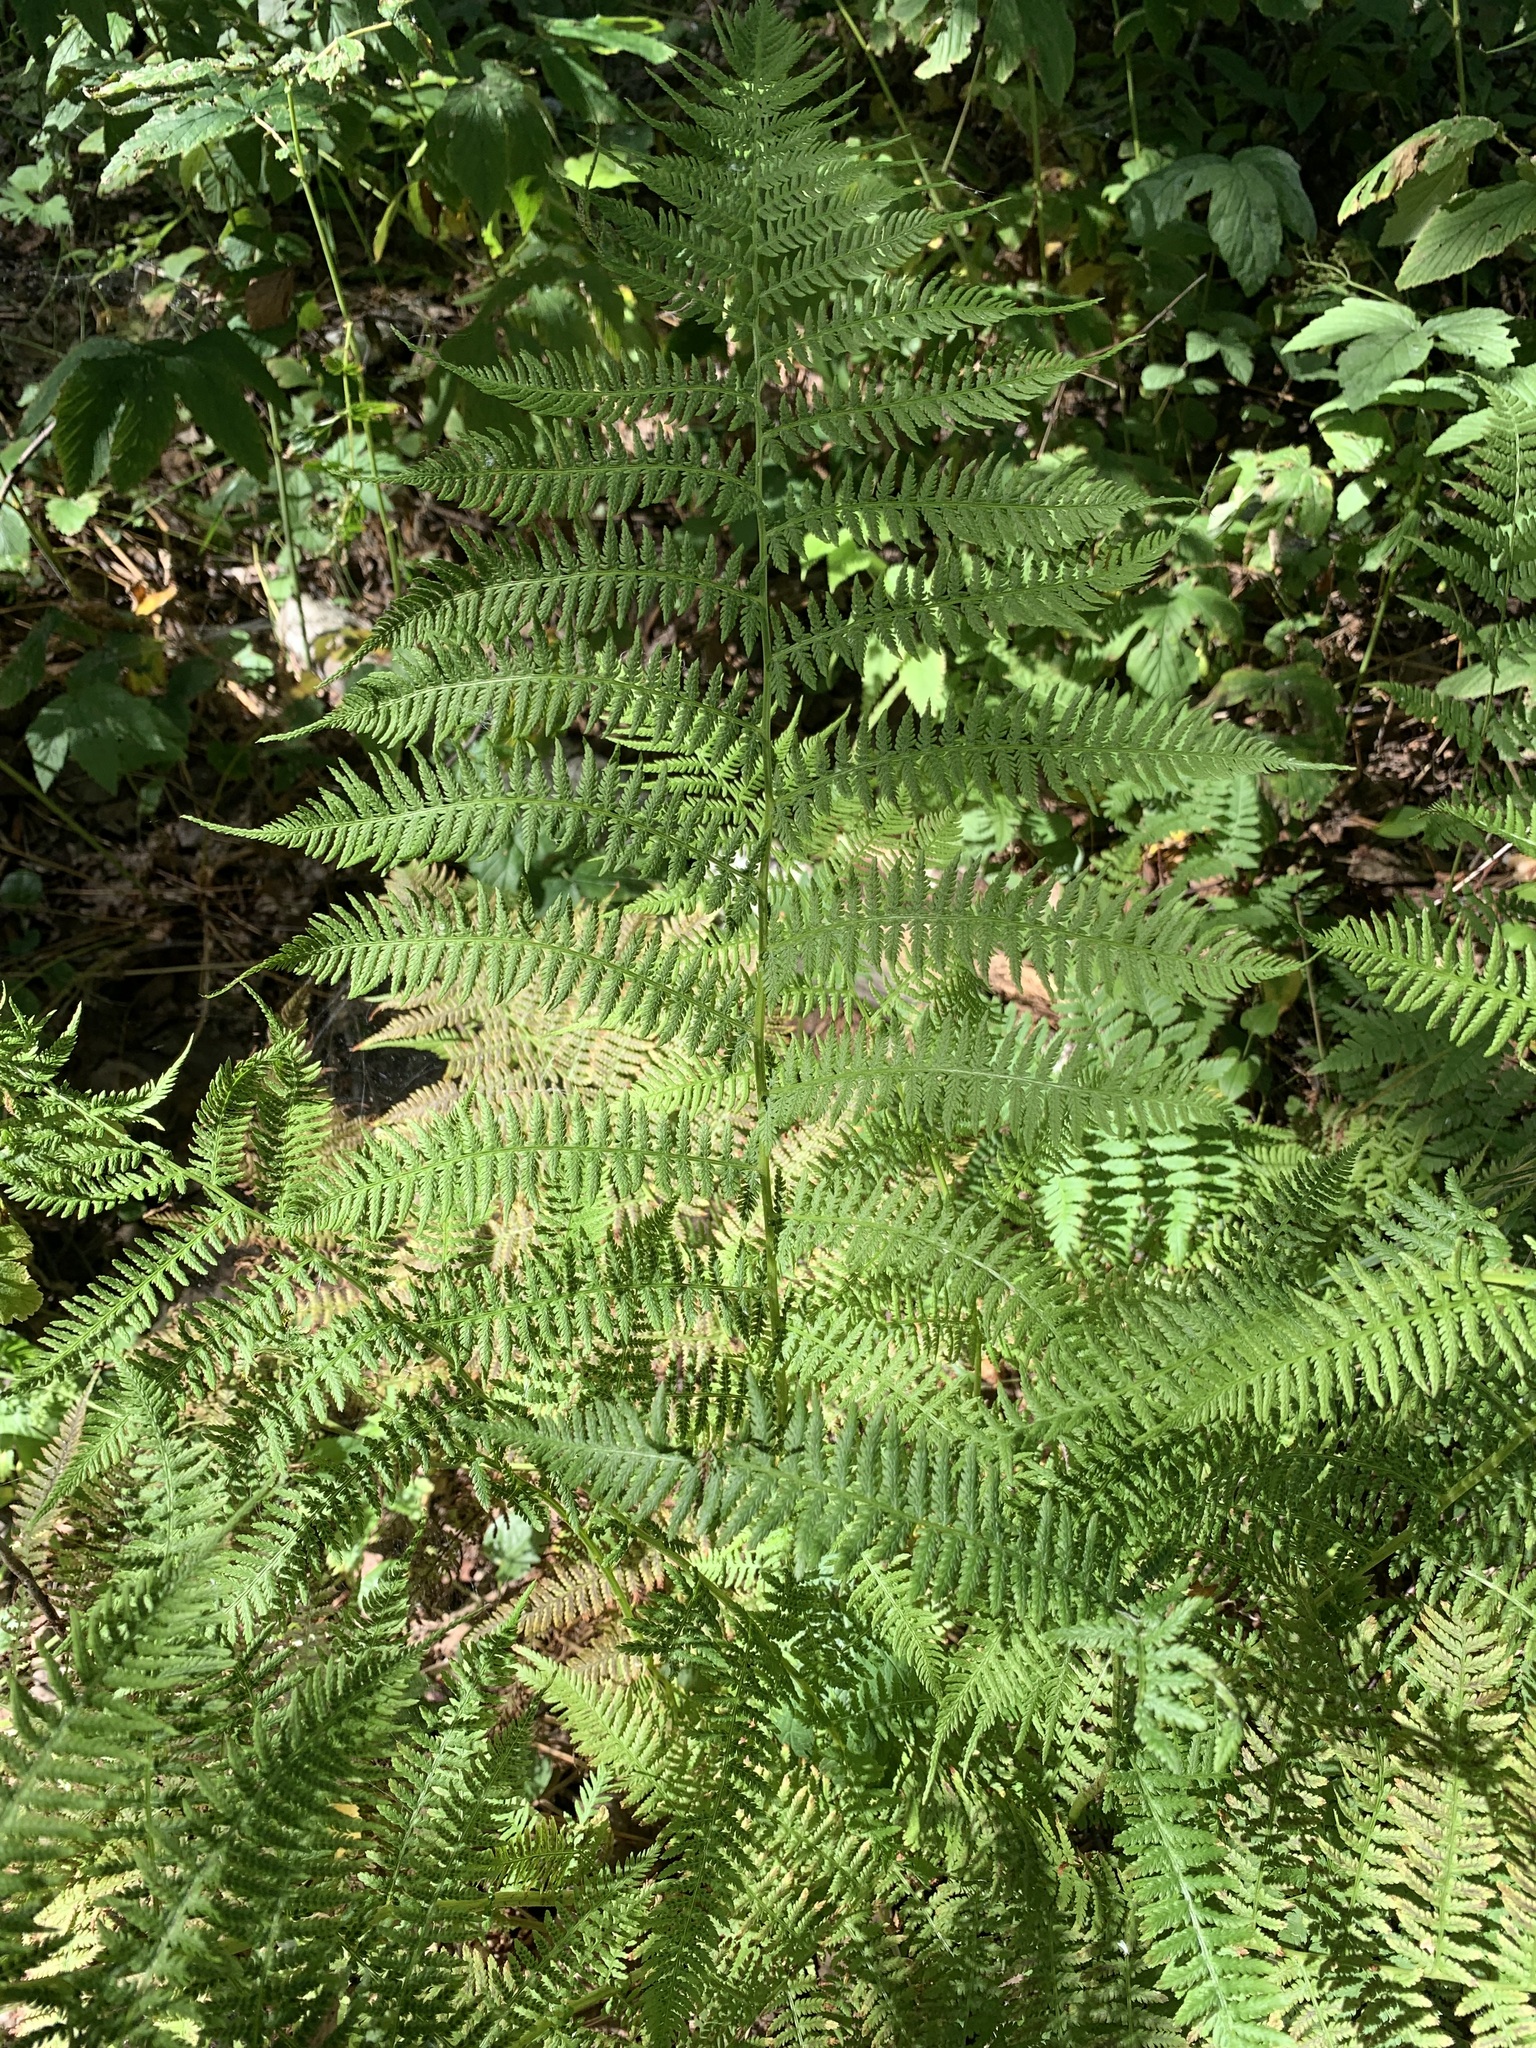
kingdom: Plantae
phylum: Tracheophyta
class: Polypodiopsida
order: Polypodiales
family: Athyriaceae
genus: Athyrium
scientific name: Athyrium filix-femina
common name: Lady fern
